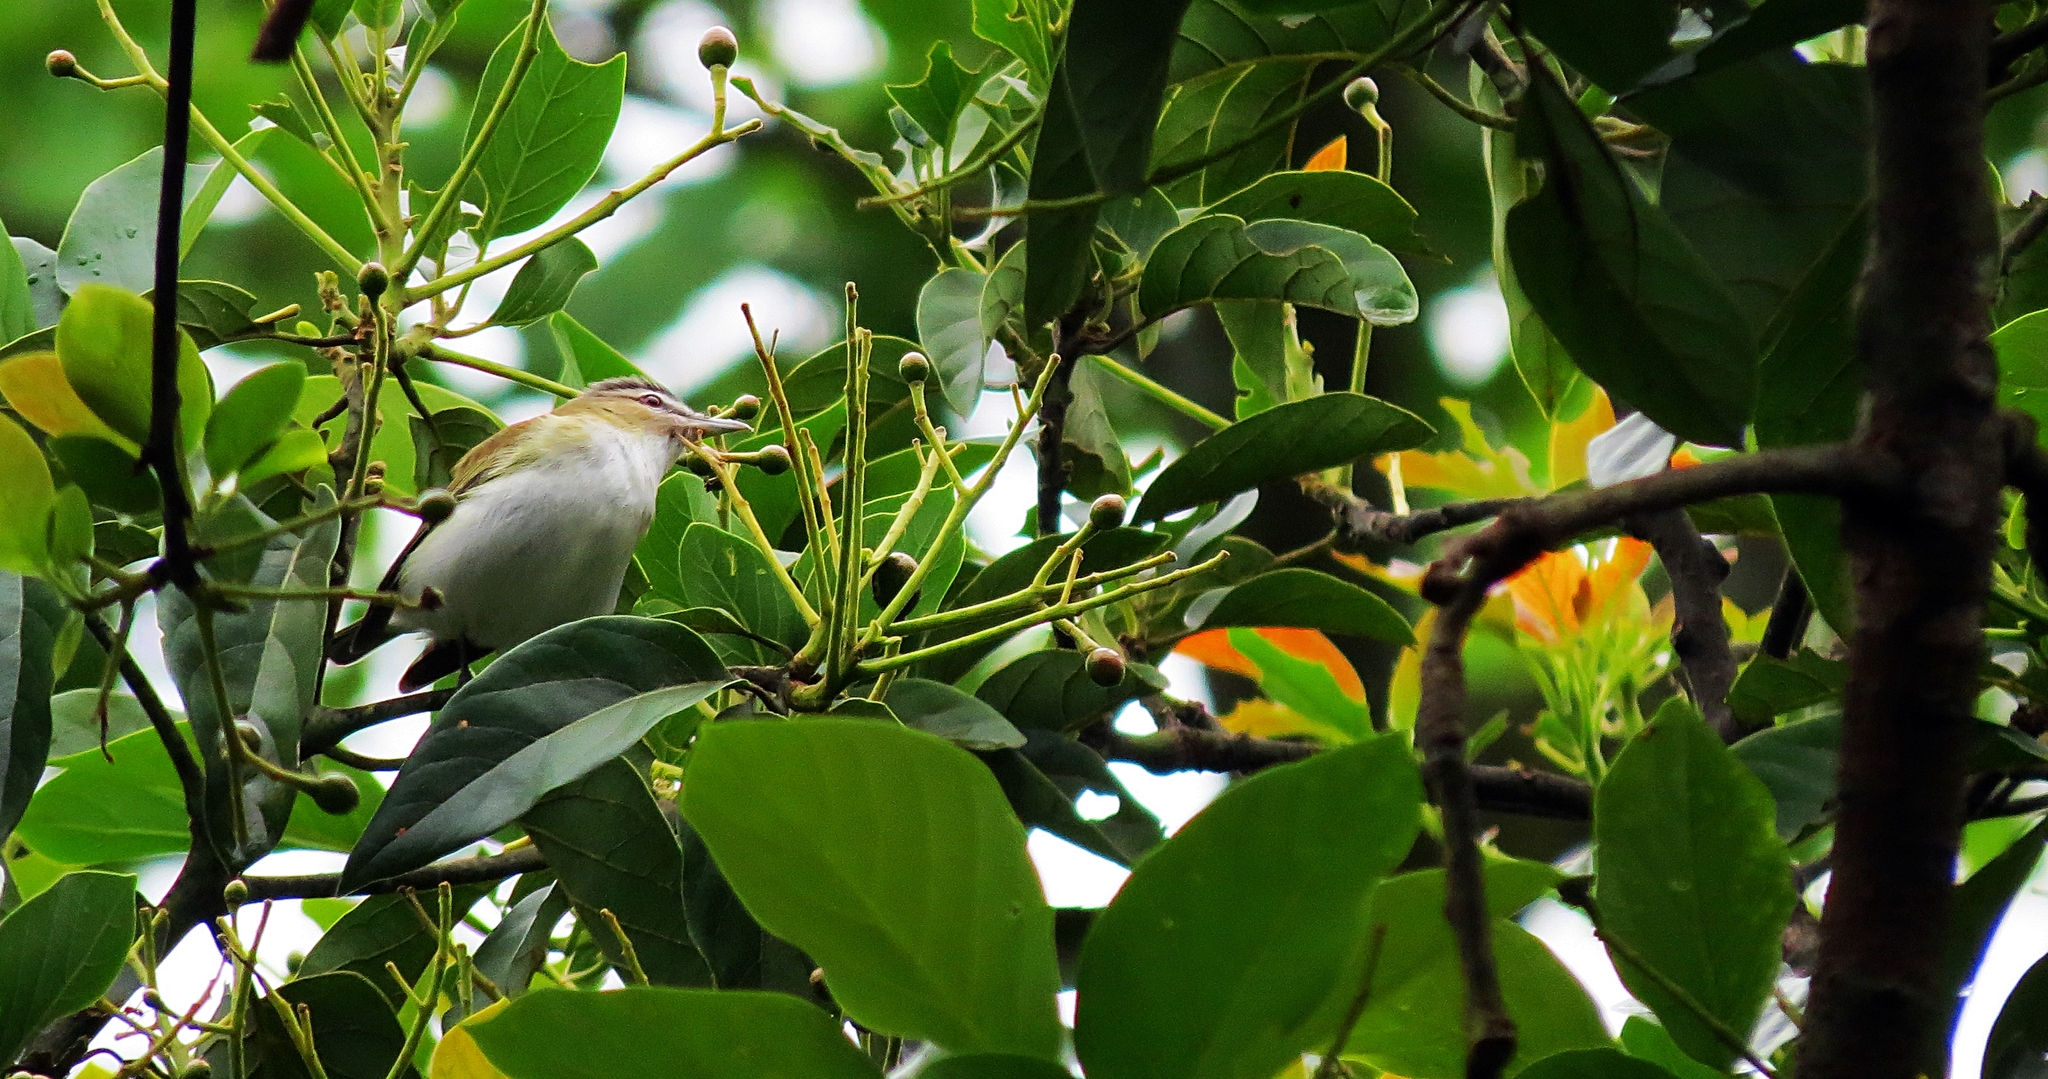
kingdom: Animalia
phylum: Chordata
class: Aves
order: Passeriformes
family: Vireonidae
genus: Vireo
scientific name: Vireo olivaceus
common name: Red-eyed vireo
